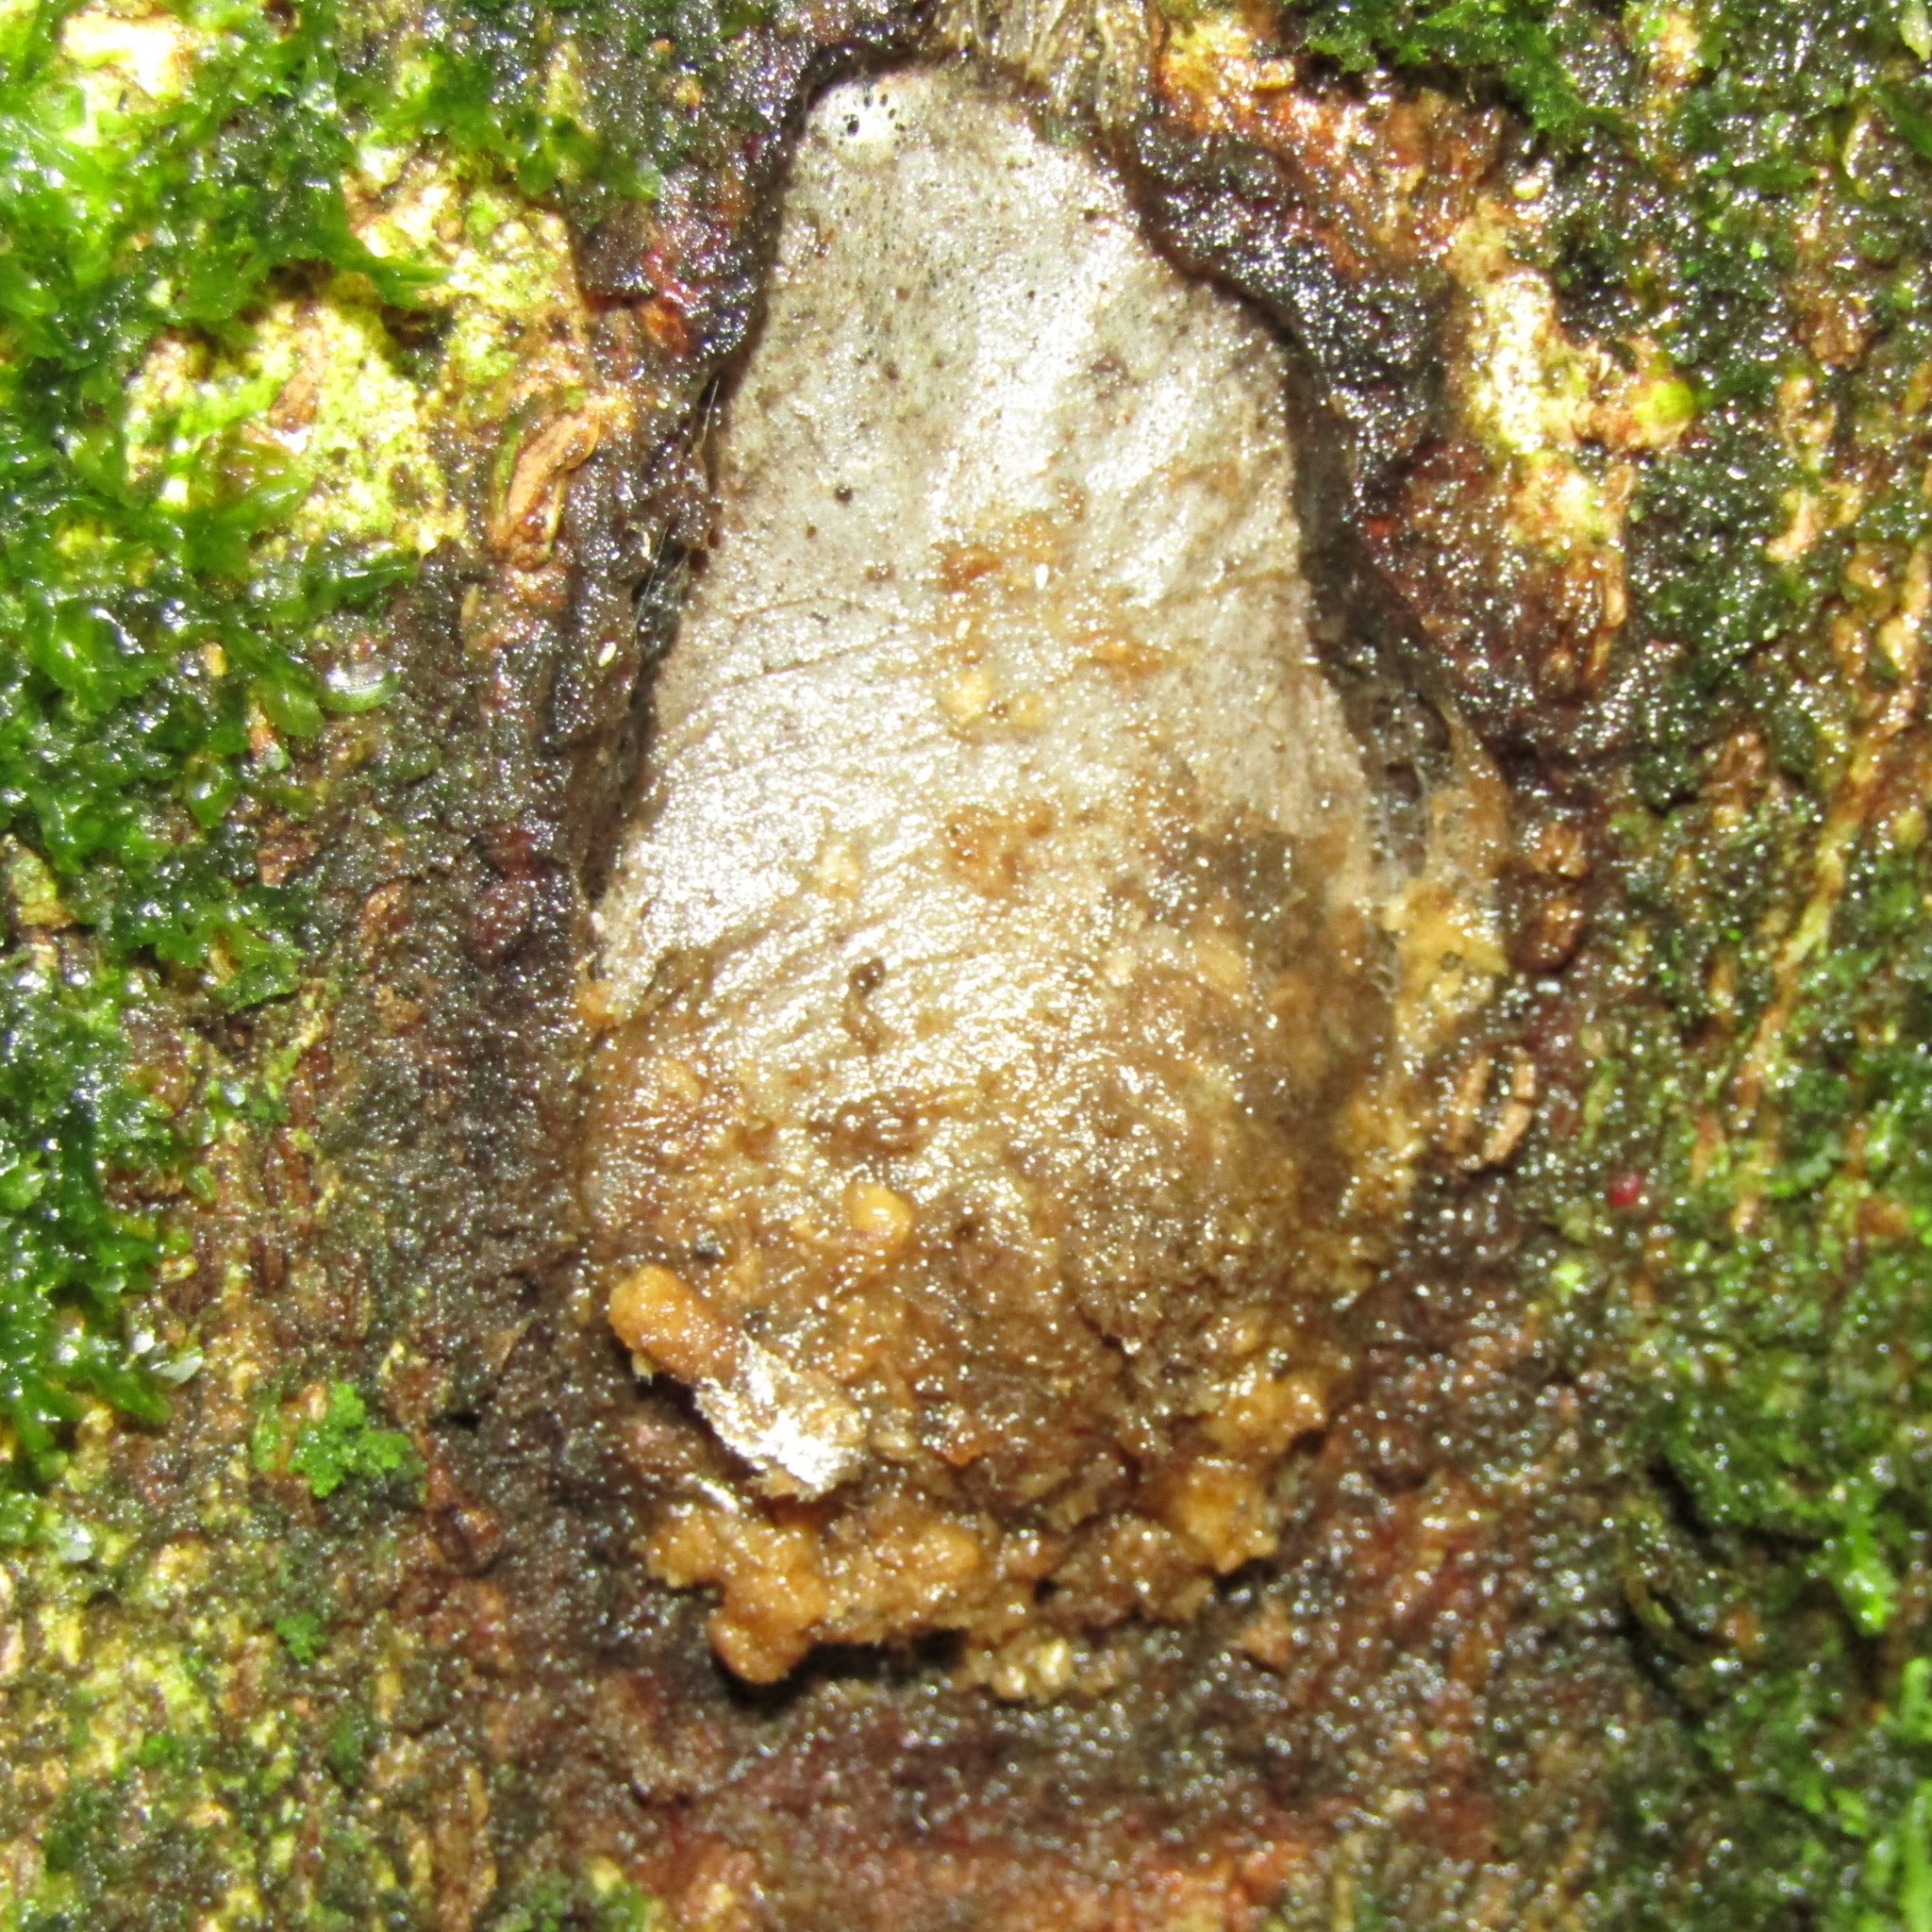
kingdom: Animalia
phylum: Arthropoda
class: Insecta
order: Lepidoptera
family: Hepialidae
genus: Aenetus
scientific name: Aenetus virescens
